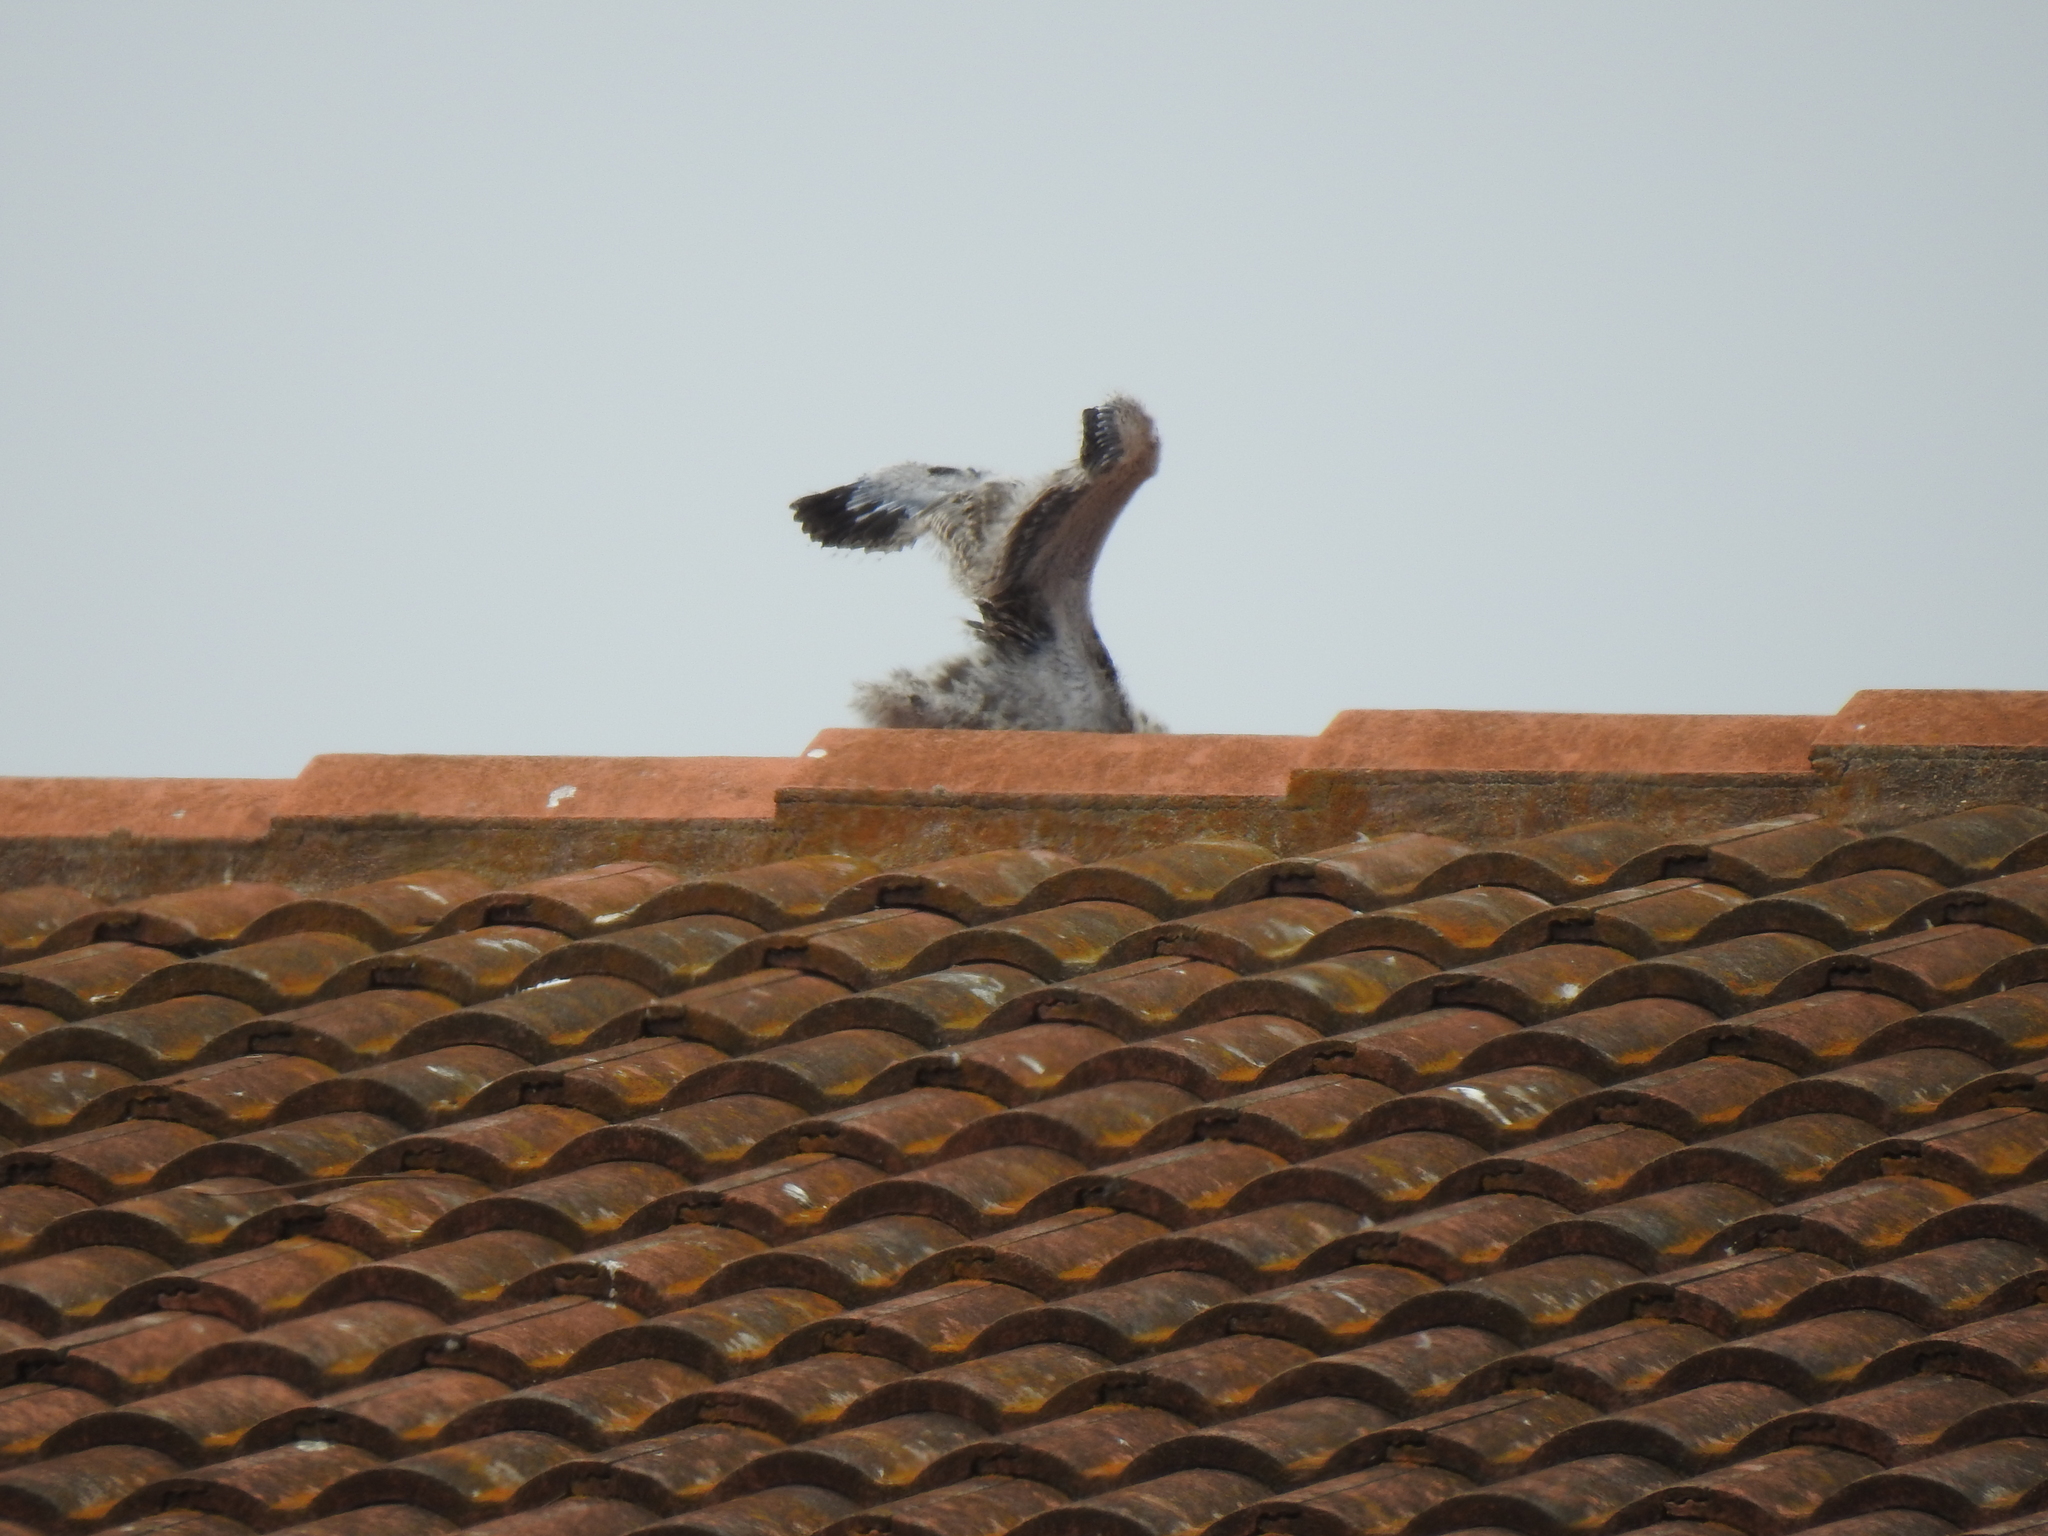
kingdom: Animalia
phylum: Chordata
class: Aves
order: Charadriiformes
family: Laridae
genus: Larus
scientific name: Larus occidentalis
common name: Western gull
